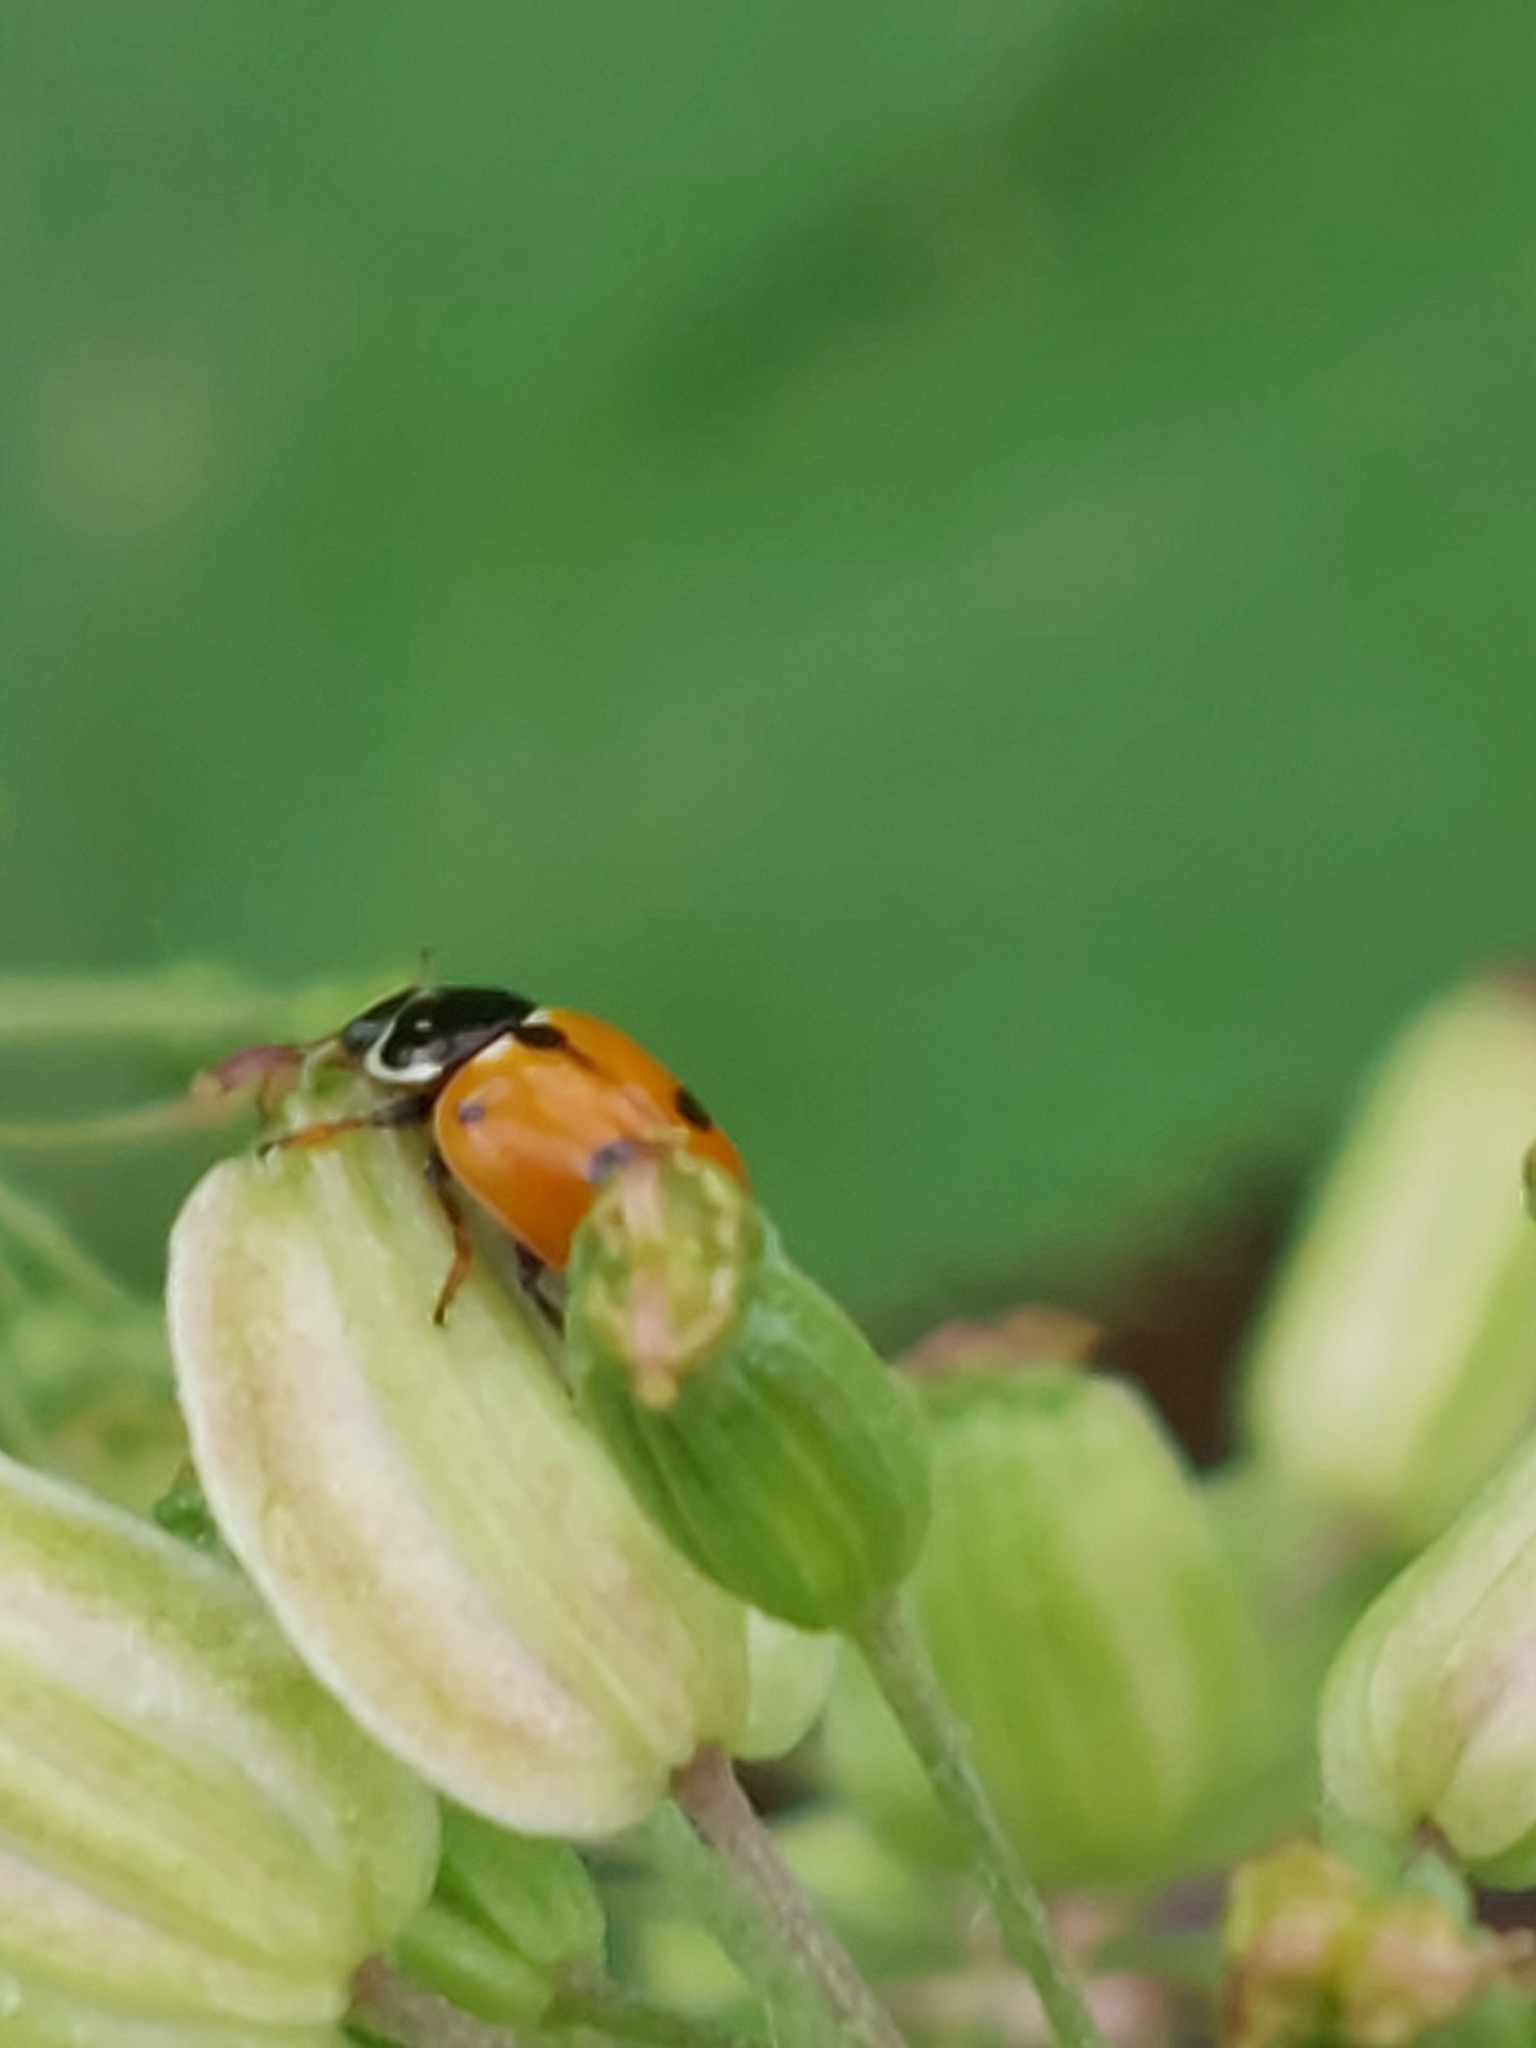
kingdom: Animalia
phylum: Arthropoda
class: Insecta
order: Coleoptera
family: Coccinellidae
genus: Hippodamia
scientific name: Hippodamia variegata
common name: Ladybird beetle
